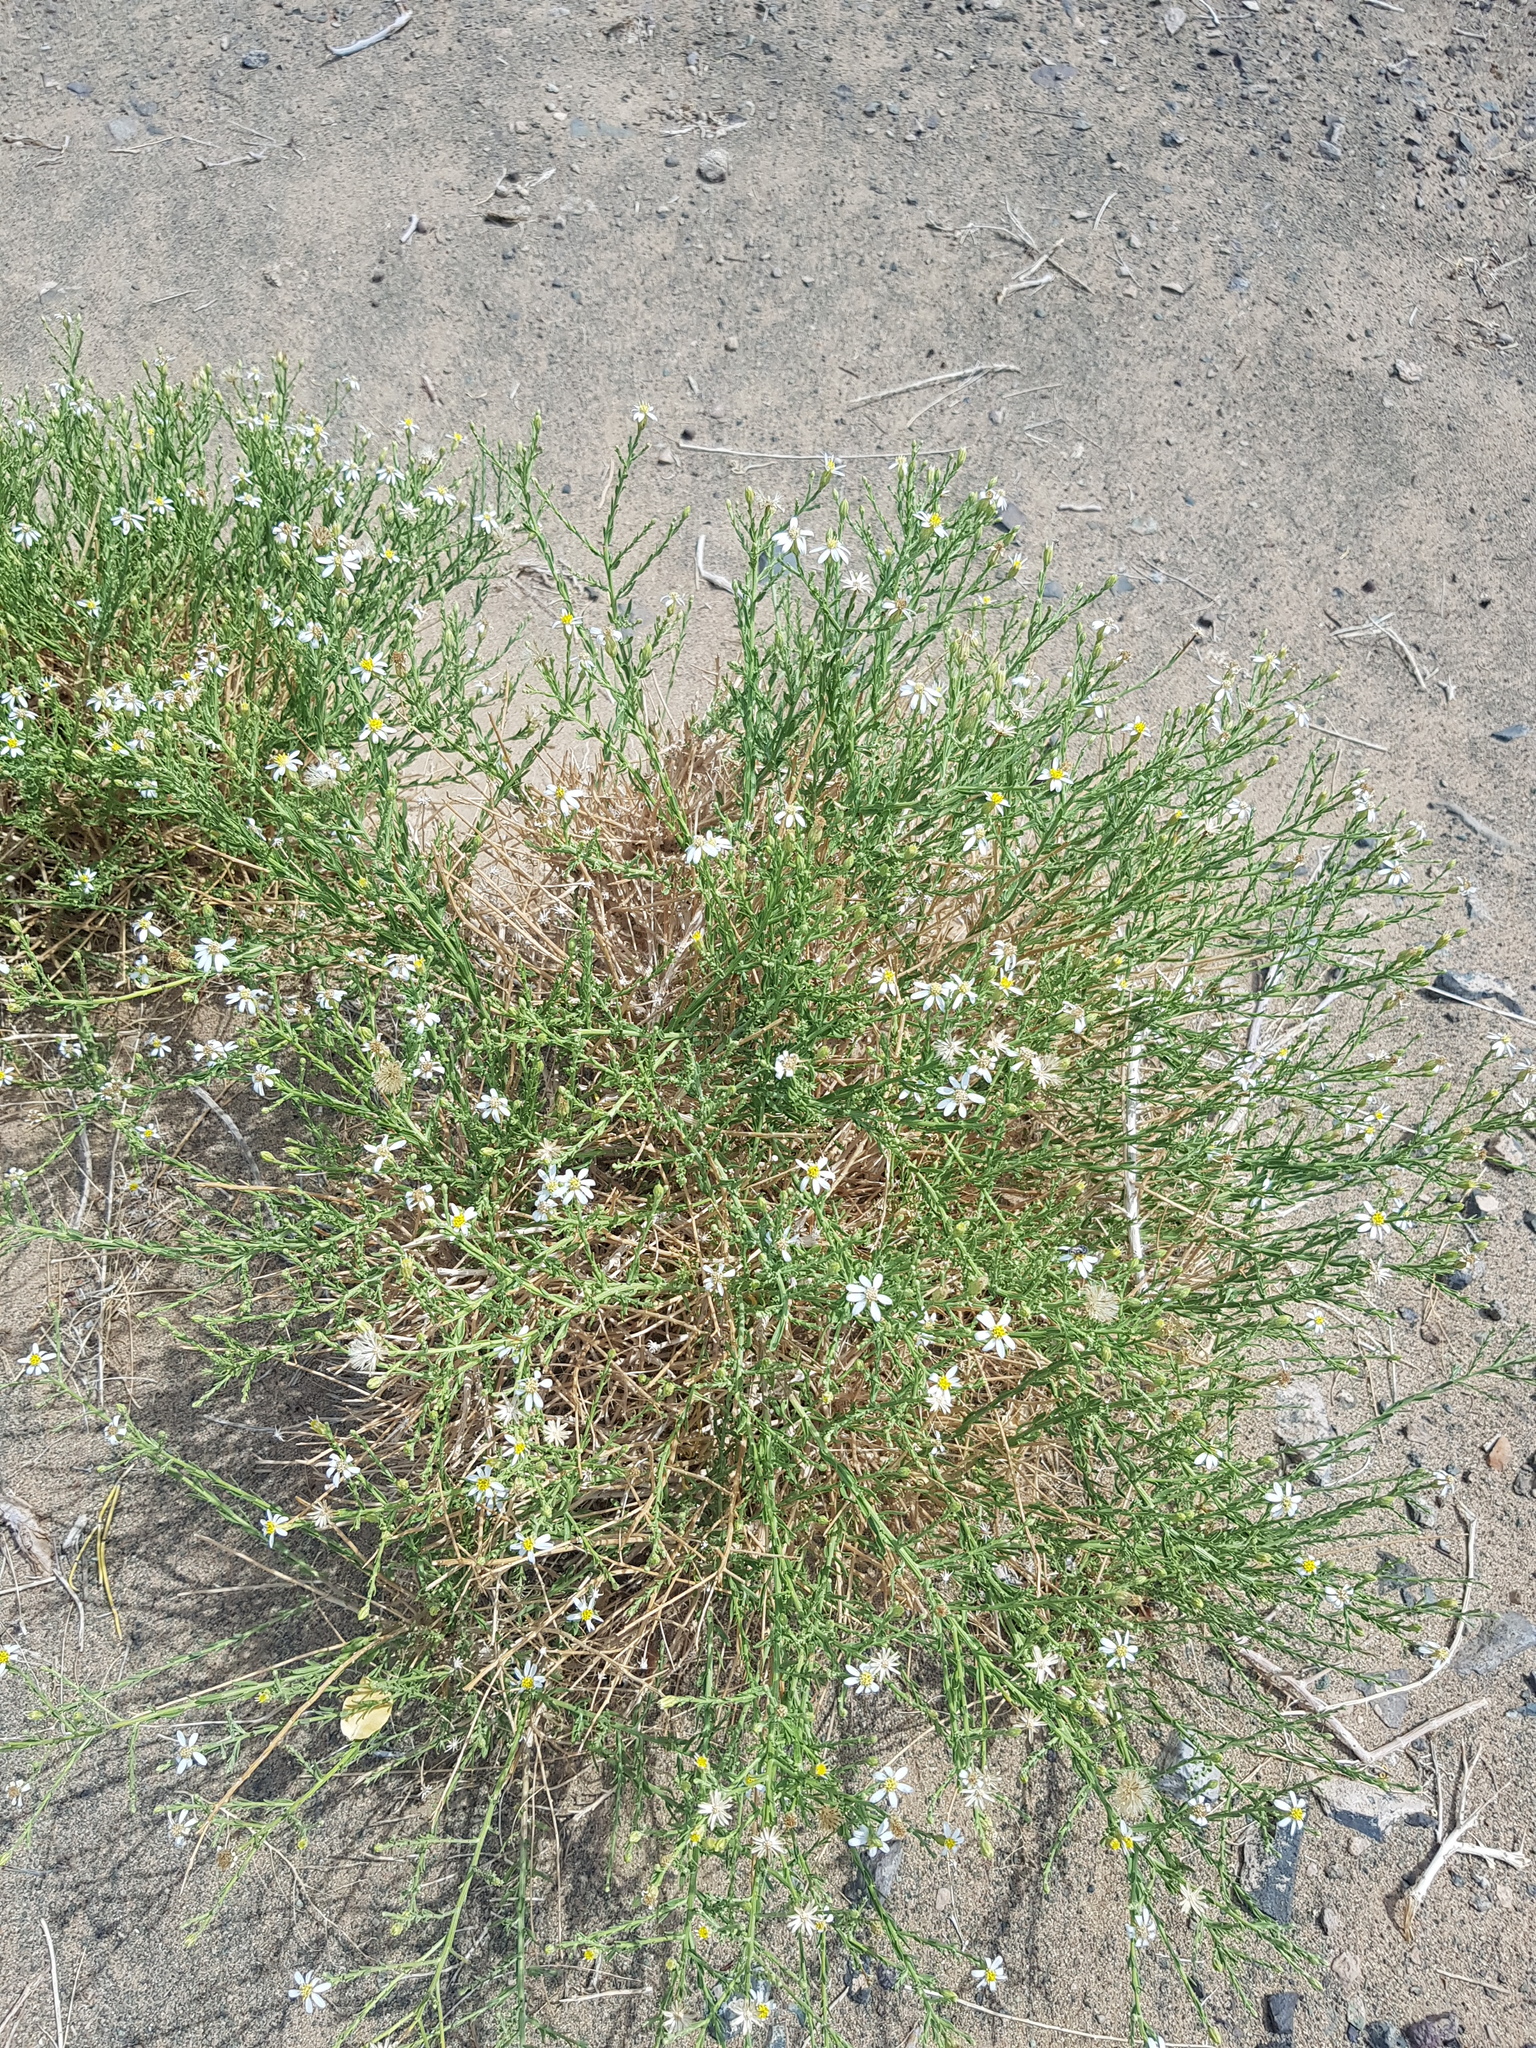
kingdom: Plantae
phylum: Tracheophyta
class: Magnoliopsida
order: Asterales
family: Asteraceae
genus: Asterothamnus
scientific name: Asterothamnus centraliasiaticus
